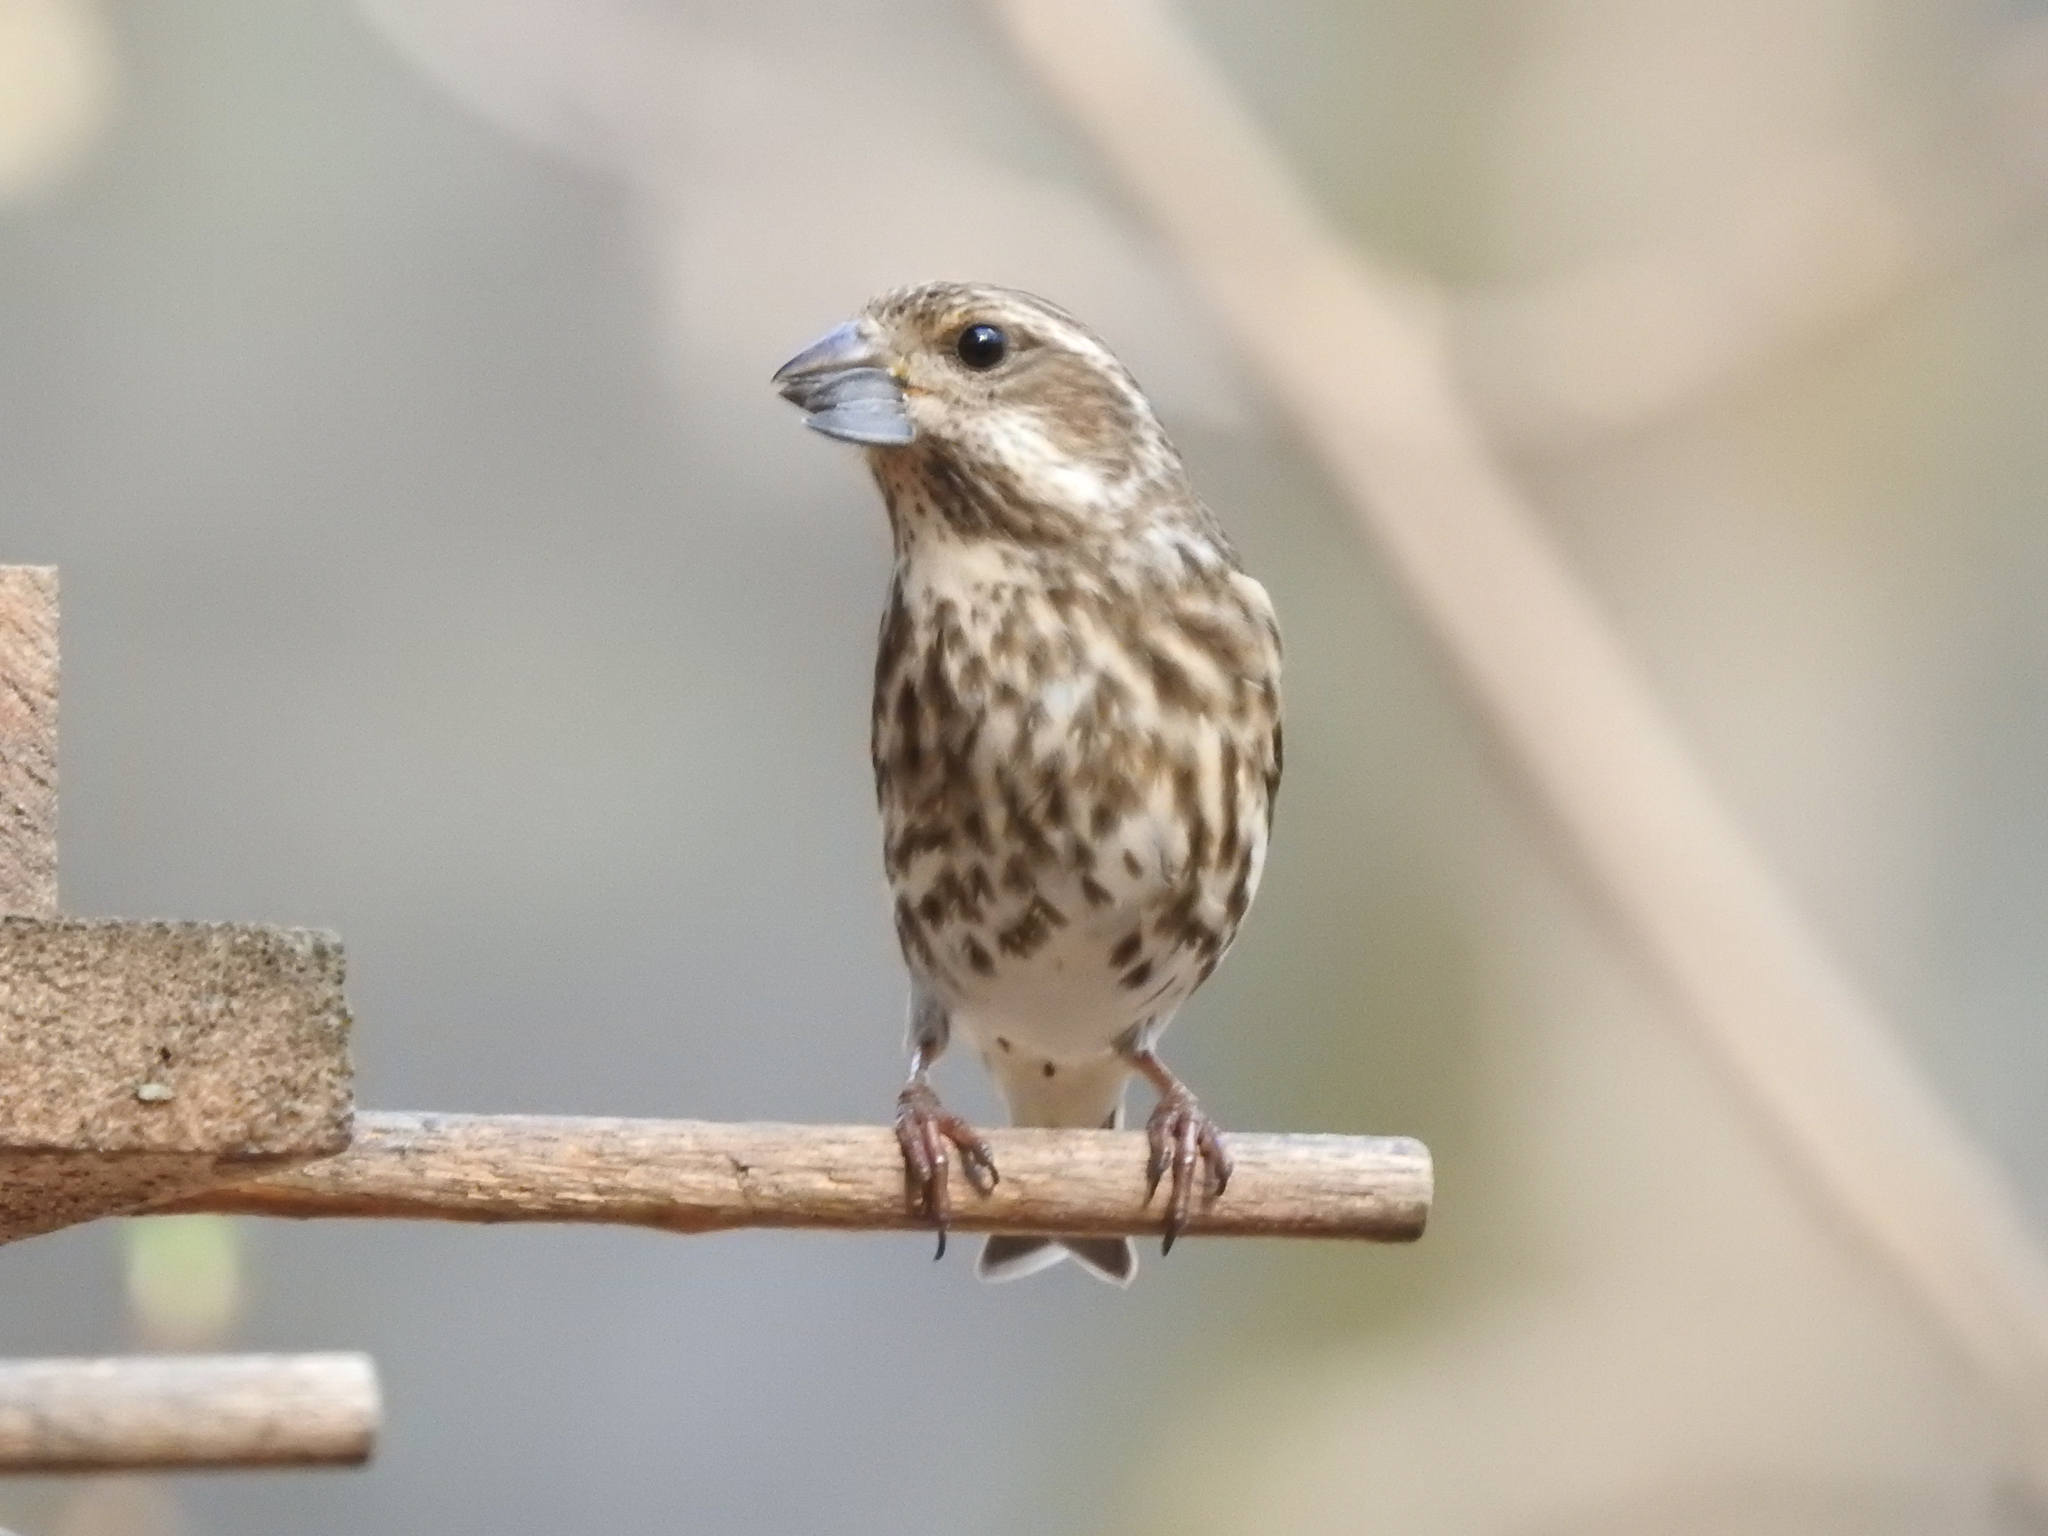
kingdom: Animalia
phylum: Chordata
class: Aves
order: Passeriformes
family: Fringillidae
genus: Haemorhous
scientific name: Haemorhous purpureus
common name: Purple finch
